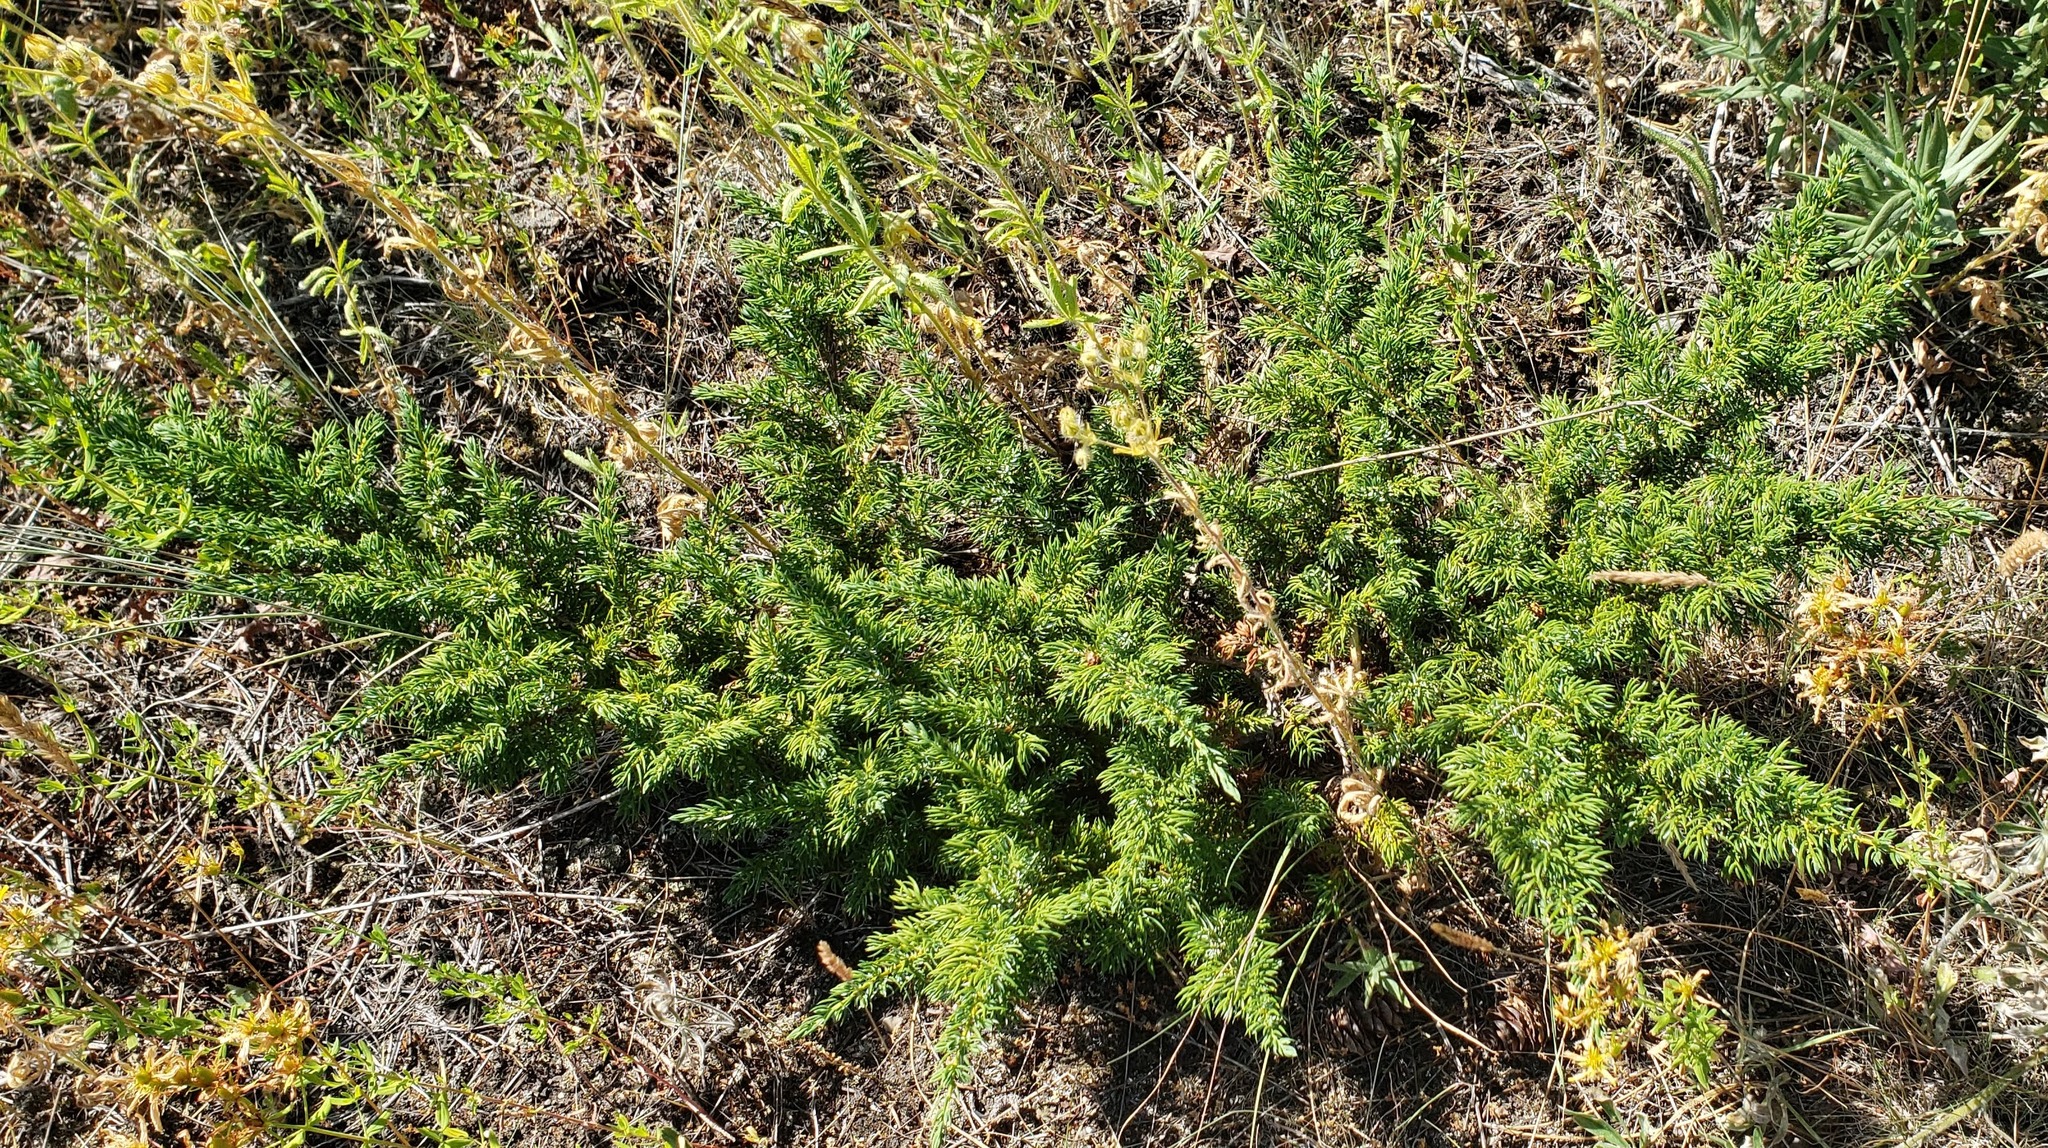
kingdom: Plantae
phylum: Tracheophyta
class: Pinopsida
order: Pinales
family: Cupressaceae
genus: Juniperus
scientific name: Juniperus communis
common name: Common juniper
